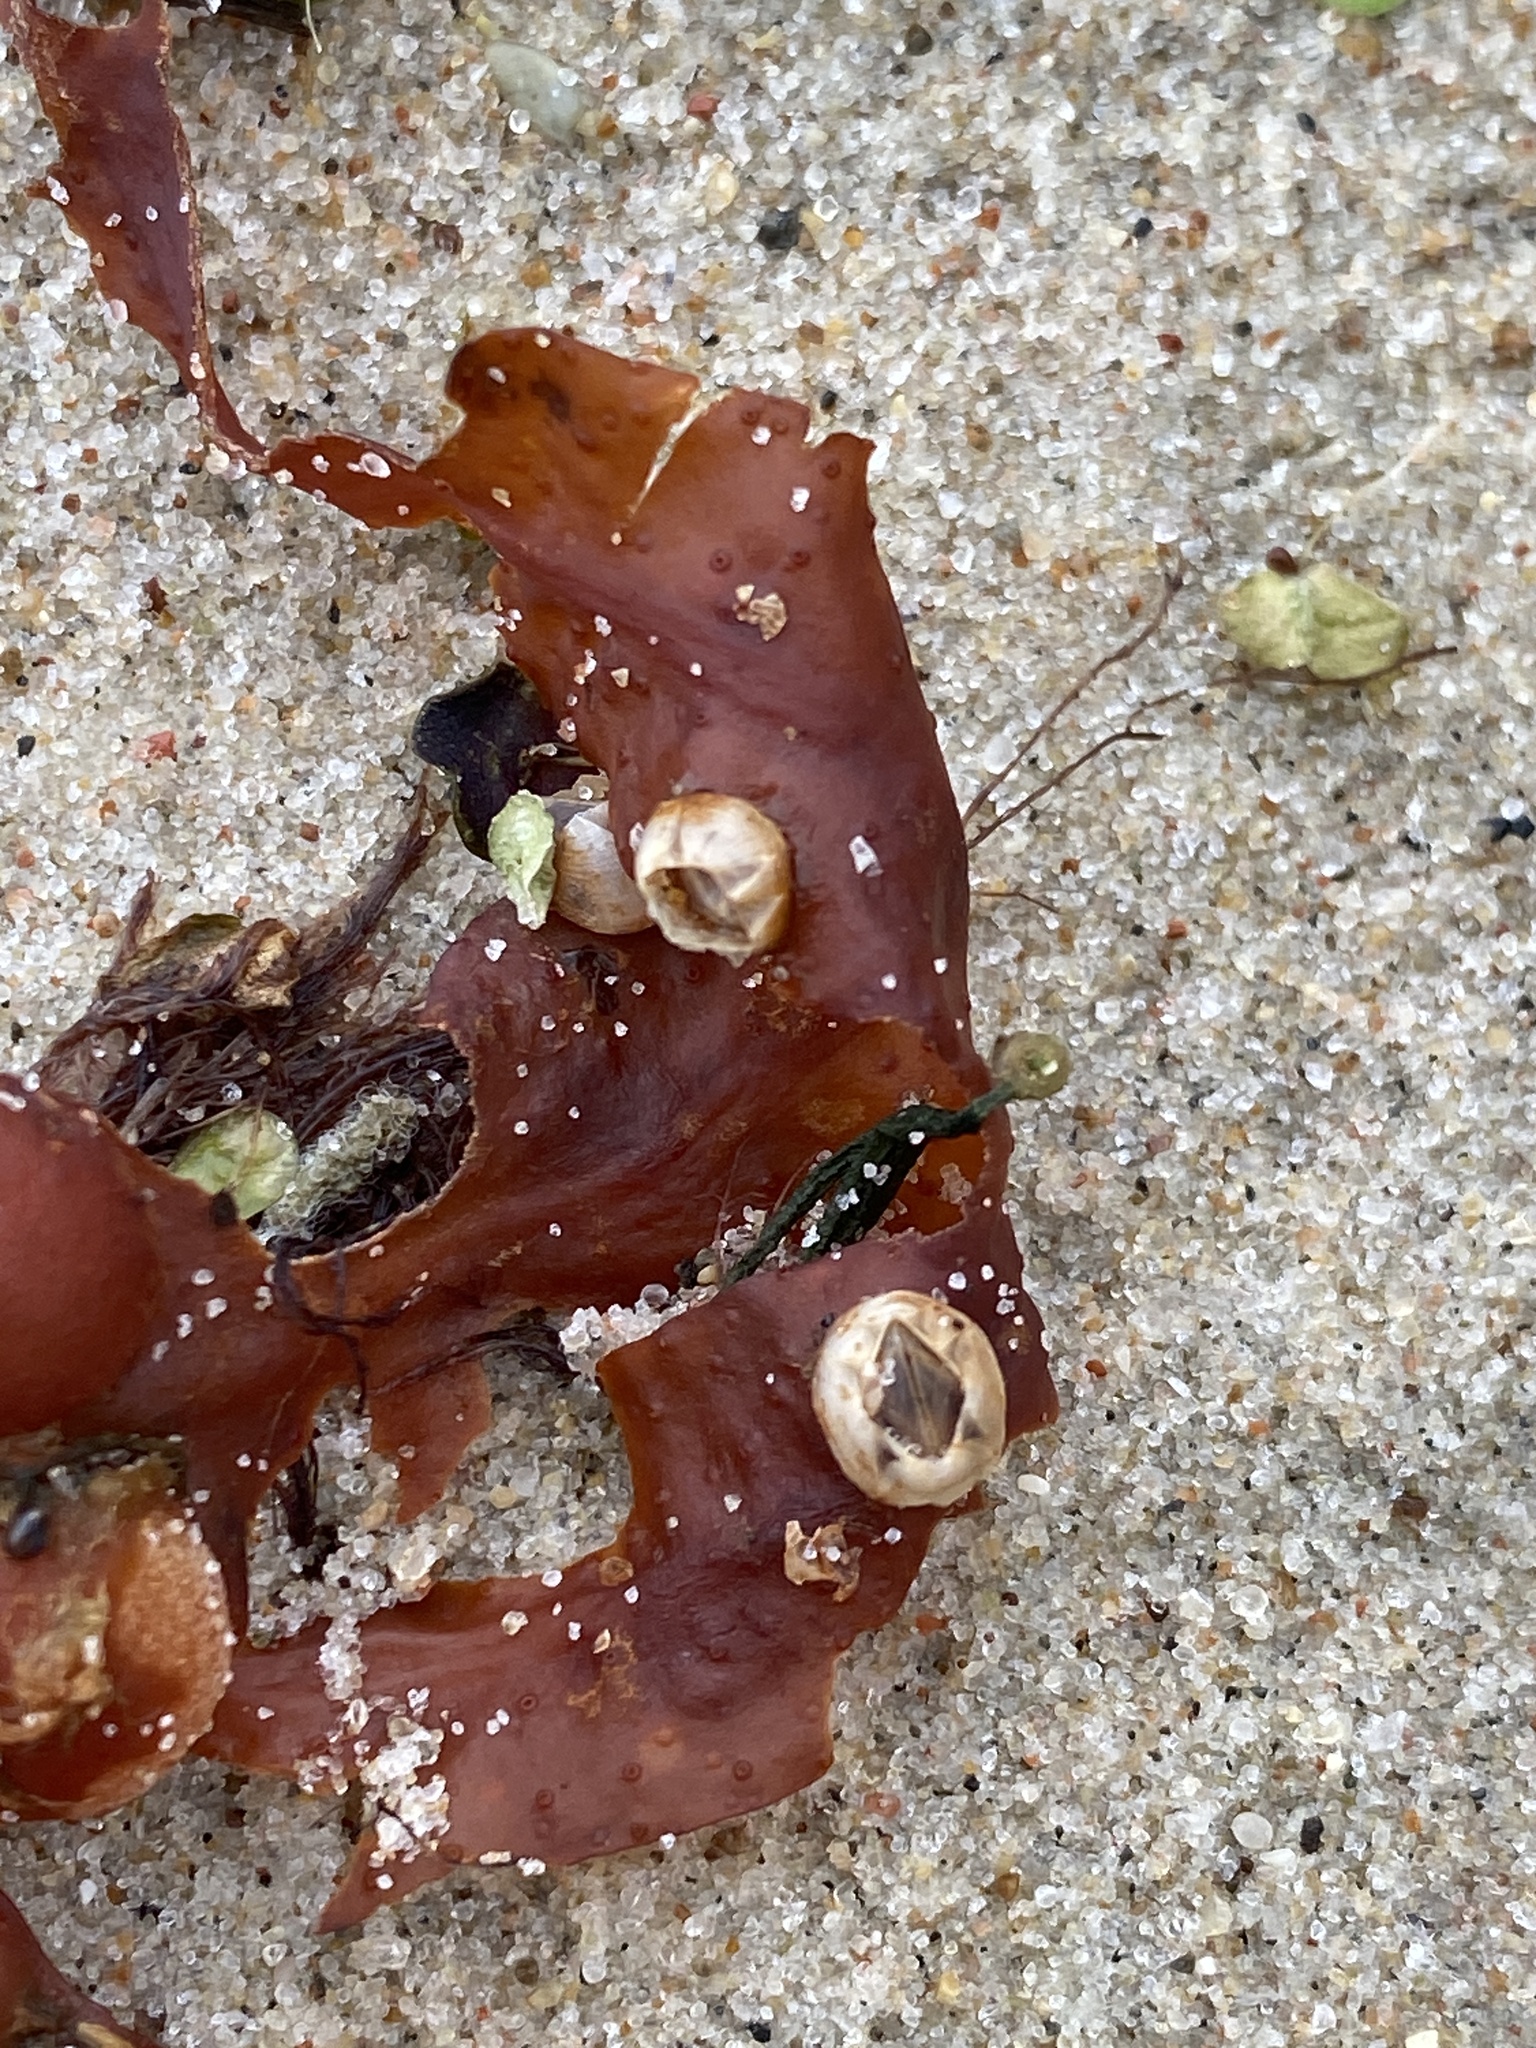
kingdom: Animalia
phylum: Arthropoda
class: Maxillopoda
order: Sessilia
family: Balanidae
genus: Amphibalanus
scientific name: Amphibalanus improvisus
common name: Bay barnacle
